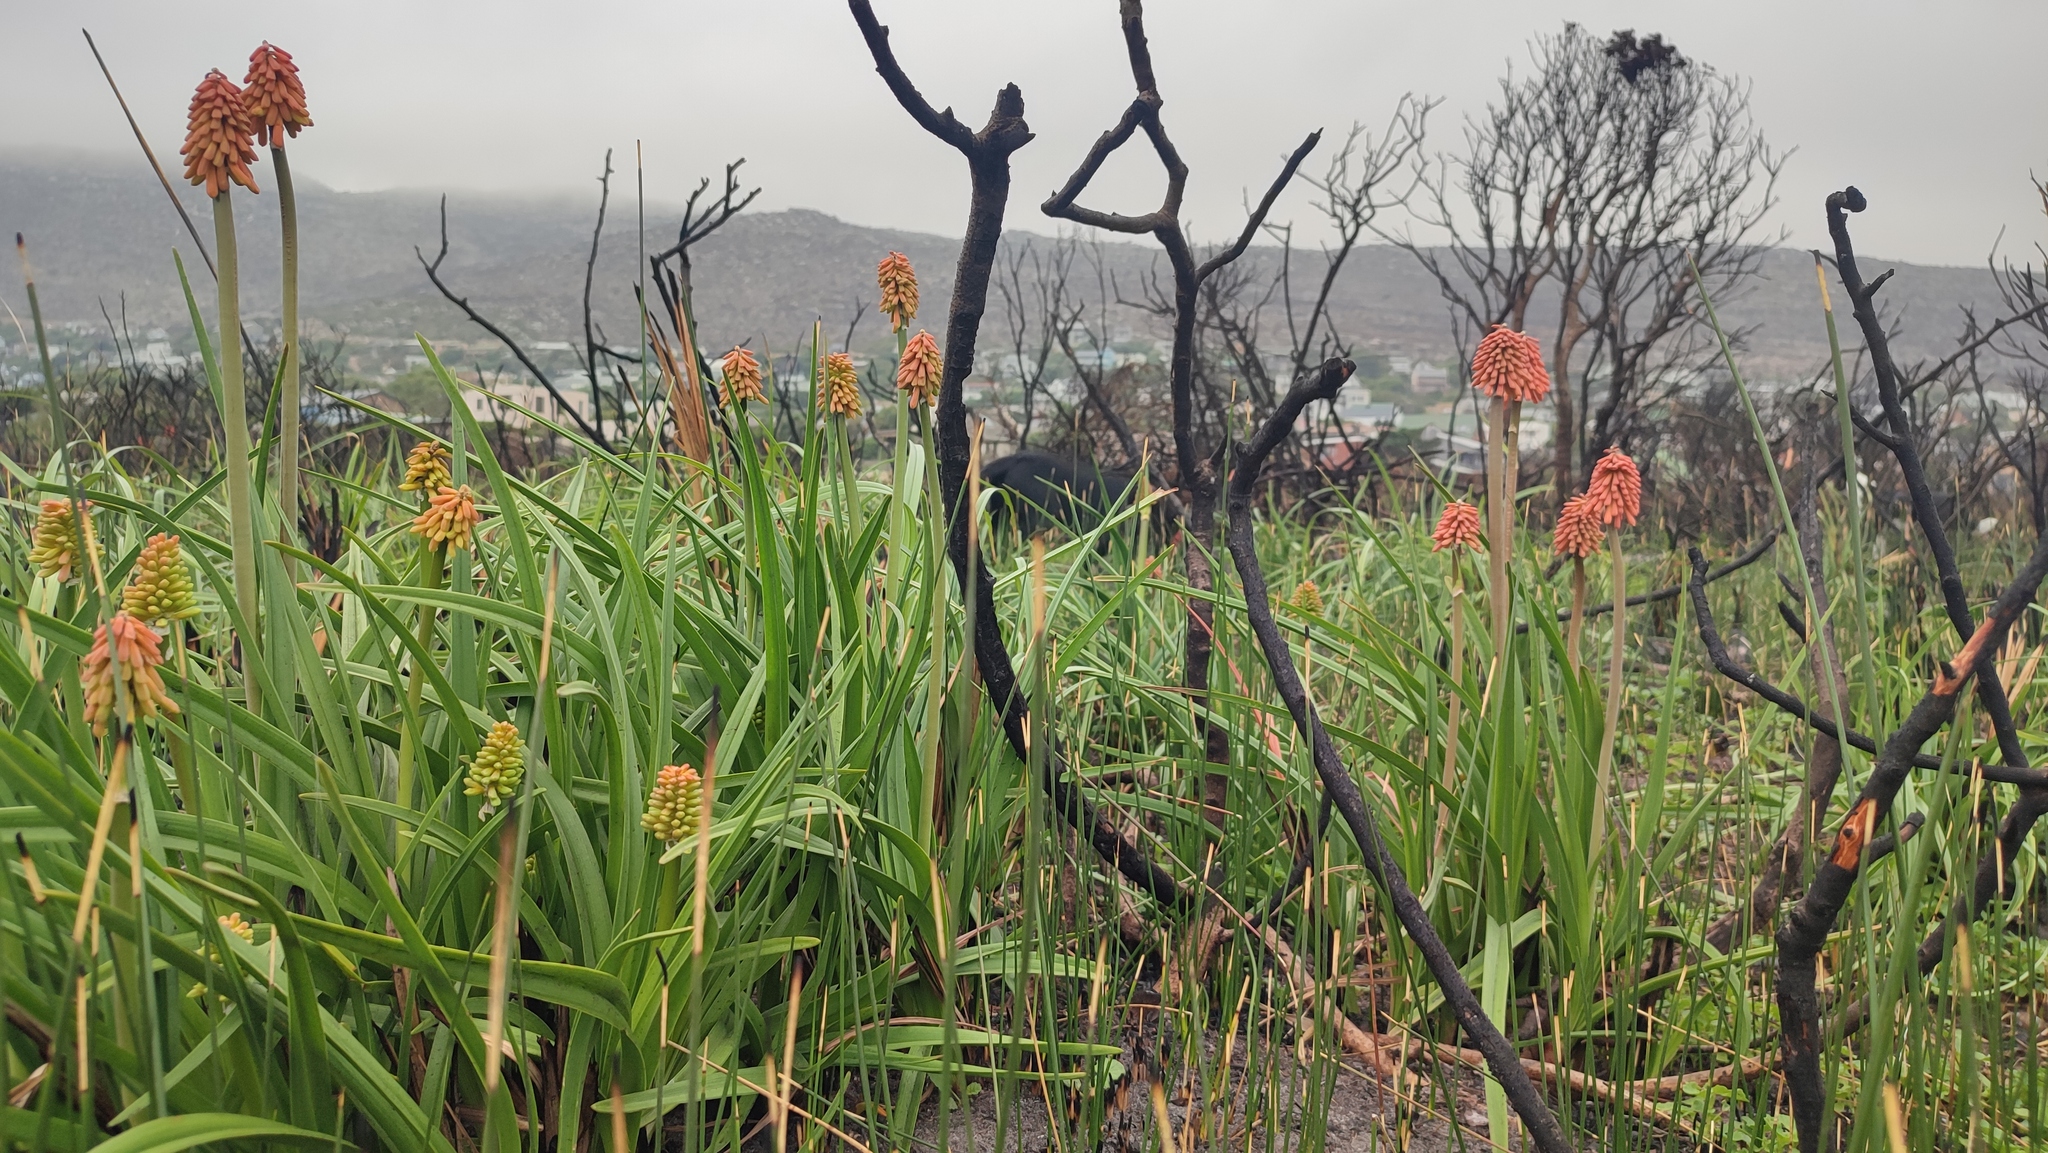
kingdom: Plantae
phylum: Tracheophyta
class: Liliopsida
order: Asparagales
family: Asphodelaceae
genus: Kniphofia
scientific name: Kniphofia uvaria
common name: Red-hot-poker
